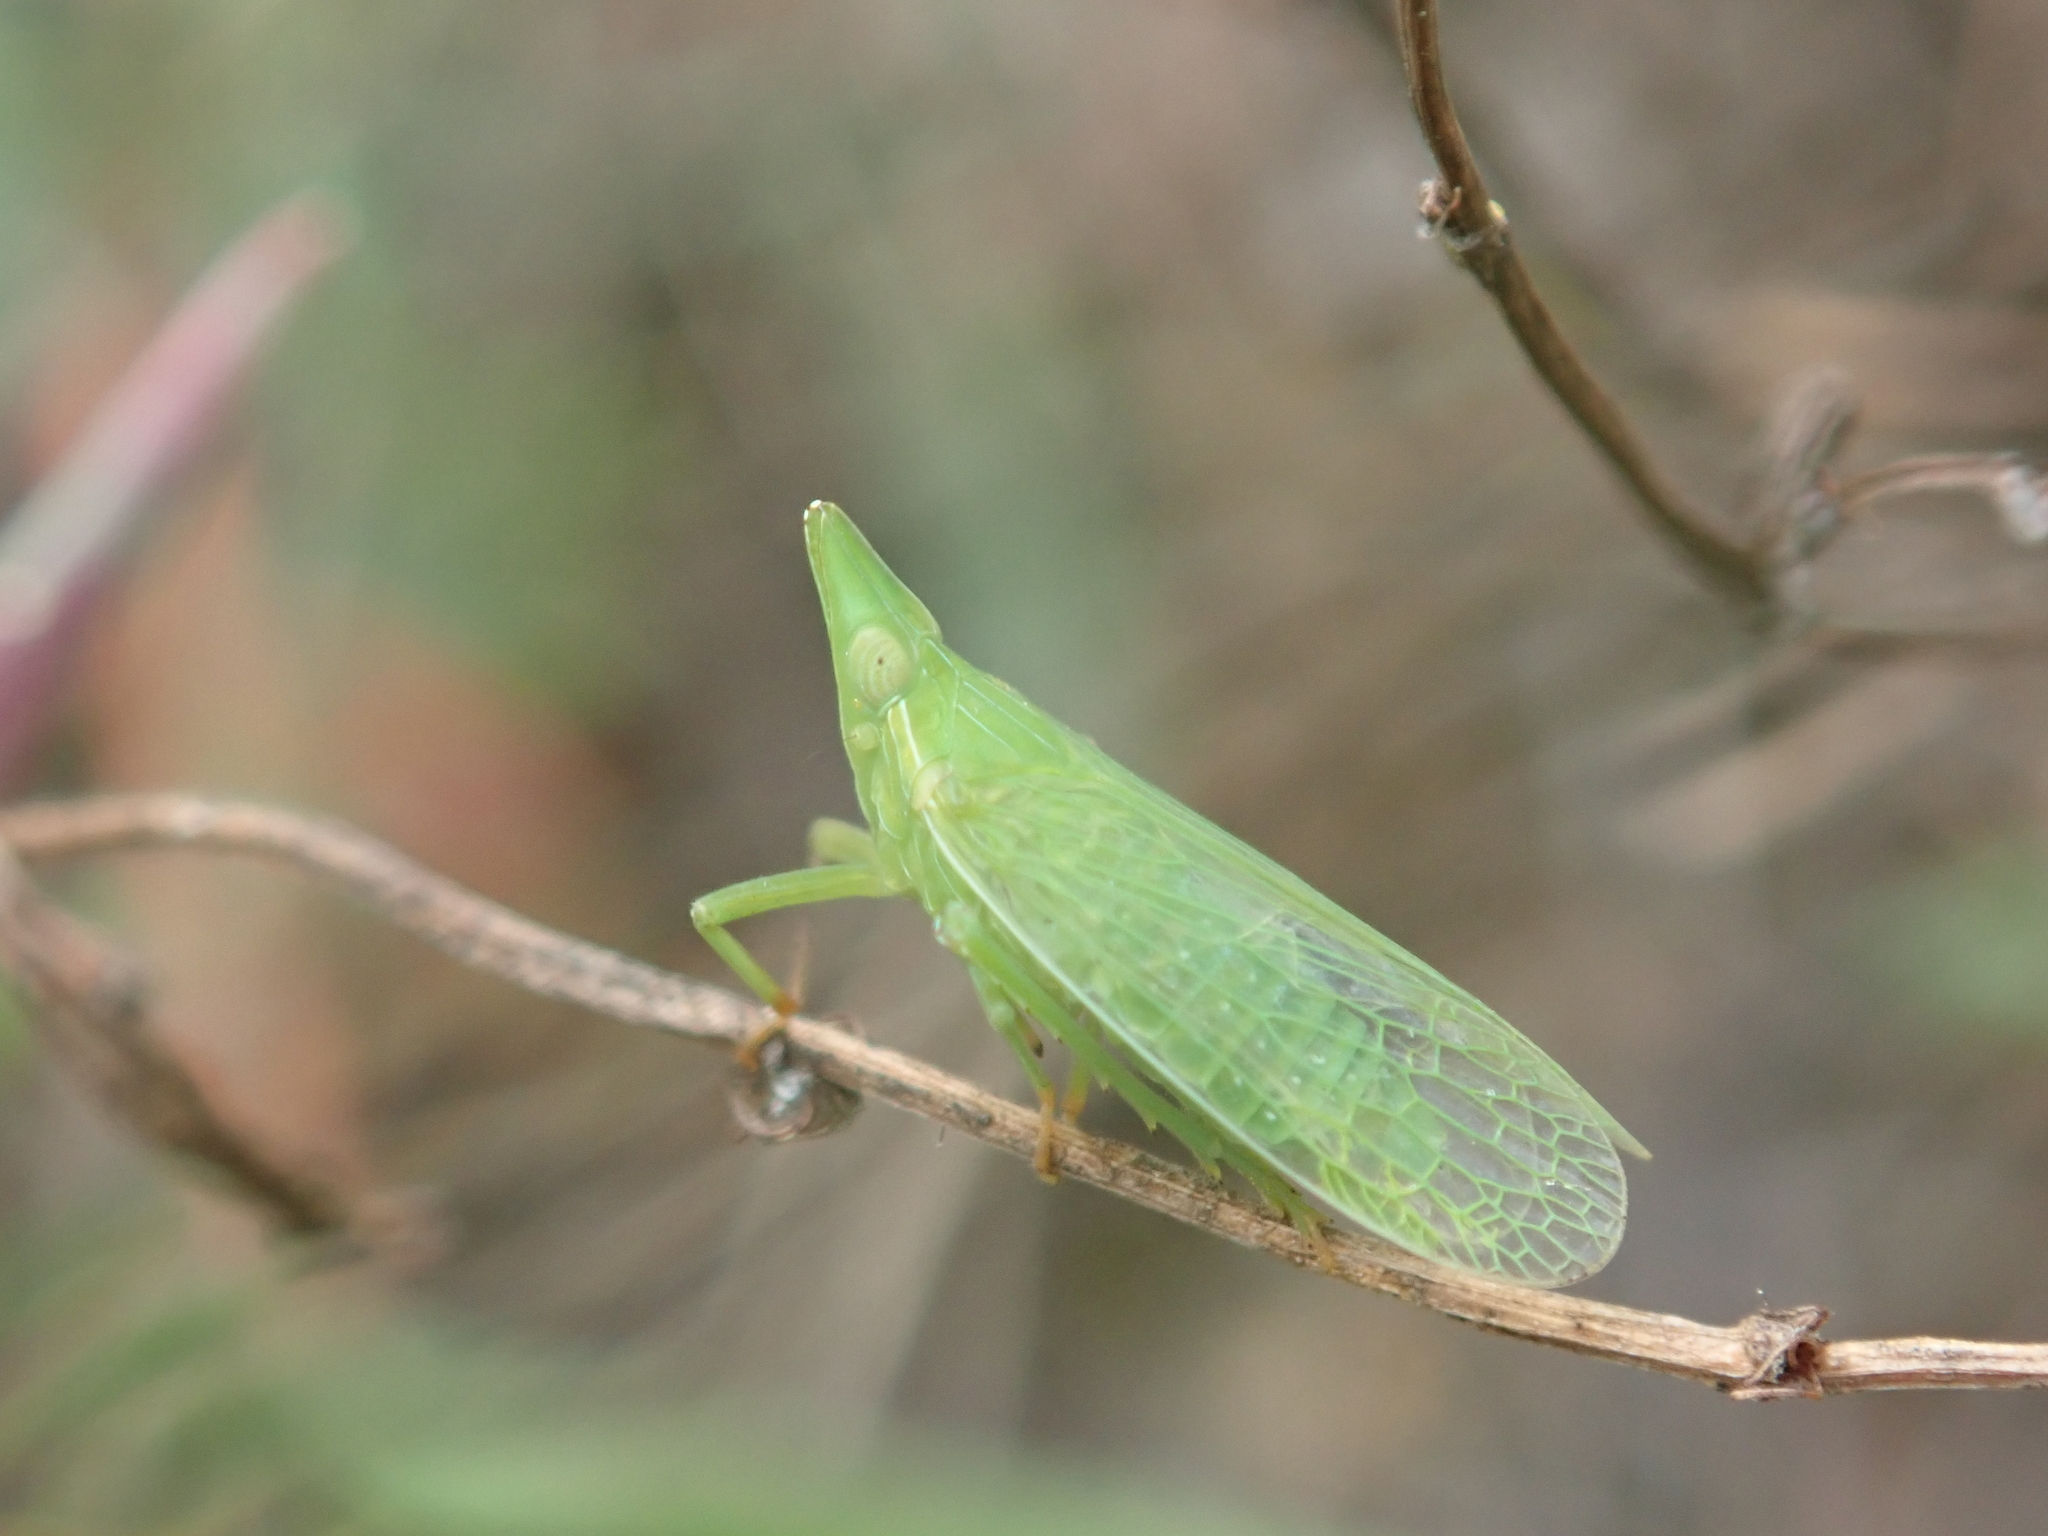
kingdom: Animalia
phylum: Arthropoda
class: Insecta
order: Hemiptera
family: Dictyopharidae
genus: Dictyophara
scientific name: Dictyophara europaea
